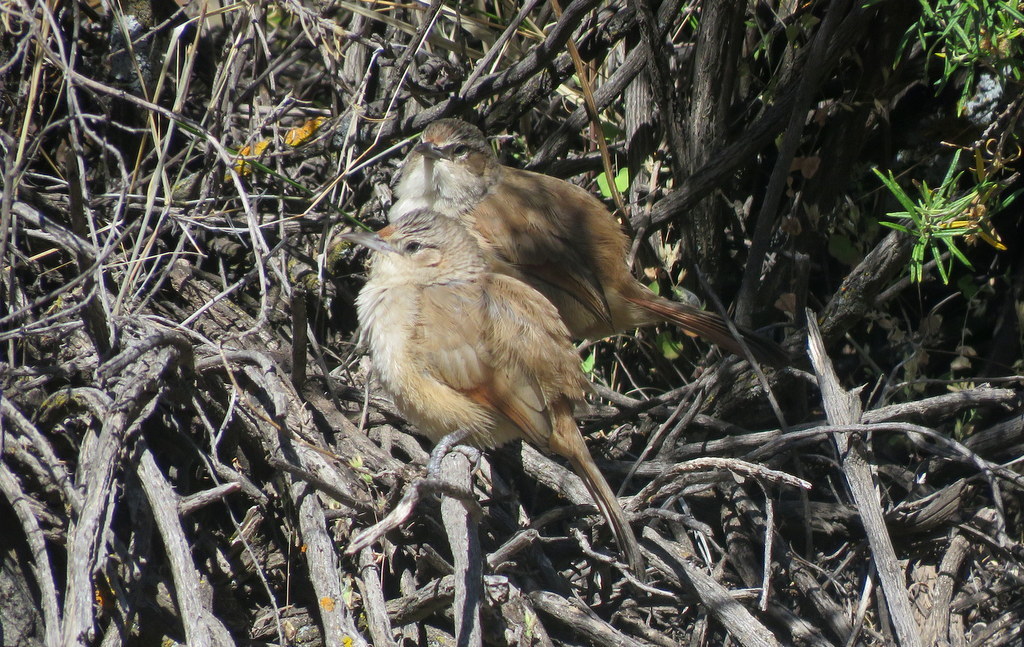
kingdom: Animalia
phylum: Chordata
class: Aves
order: Passeriformes
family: Furnariidae
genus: Phacellodomus
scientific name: Phacellodomus striaticeps
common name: Streak-fronted thornbird
